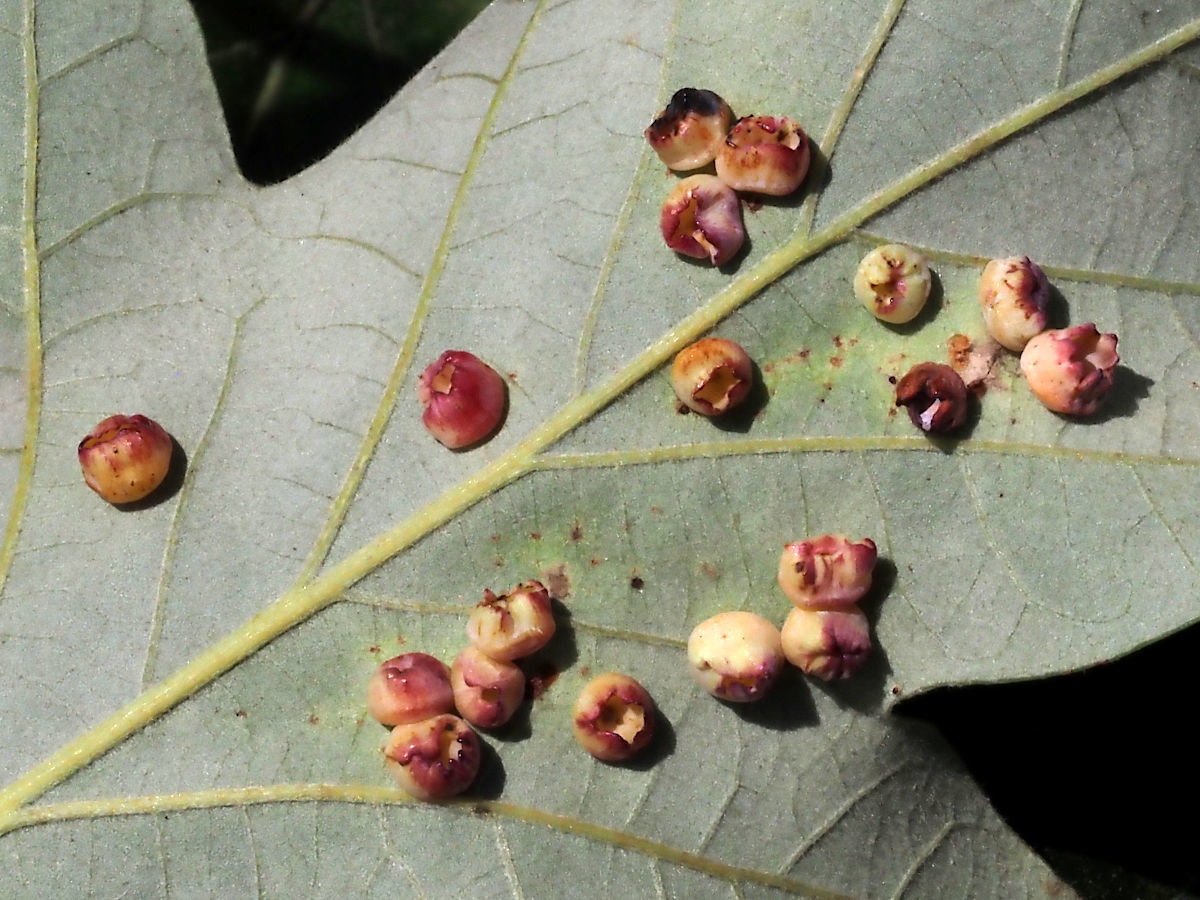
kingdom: Animalia
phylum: Arthropoda
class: Insecta
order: Hymenoptera
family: Cynipidae
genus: Phylloteras
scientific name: Phylloteras
